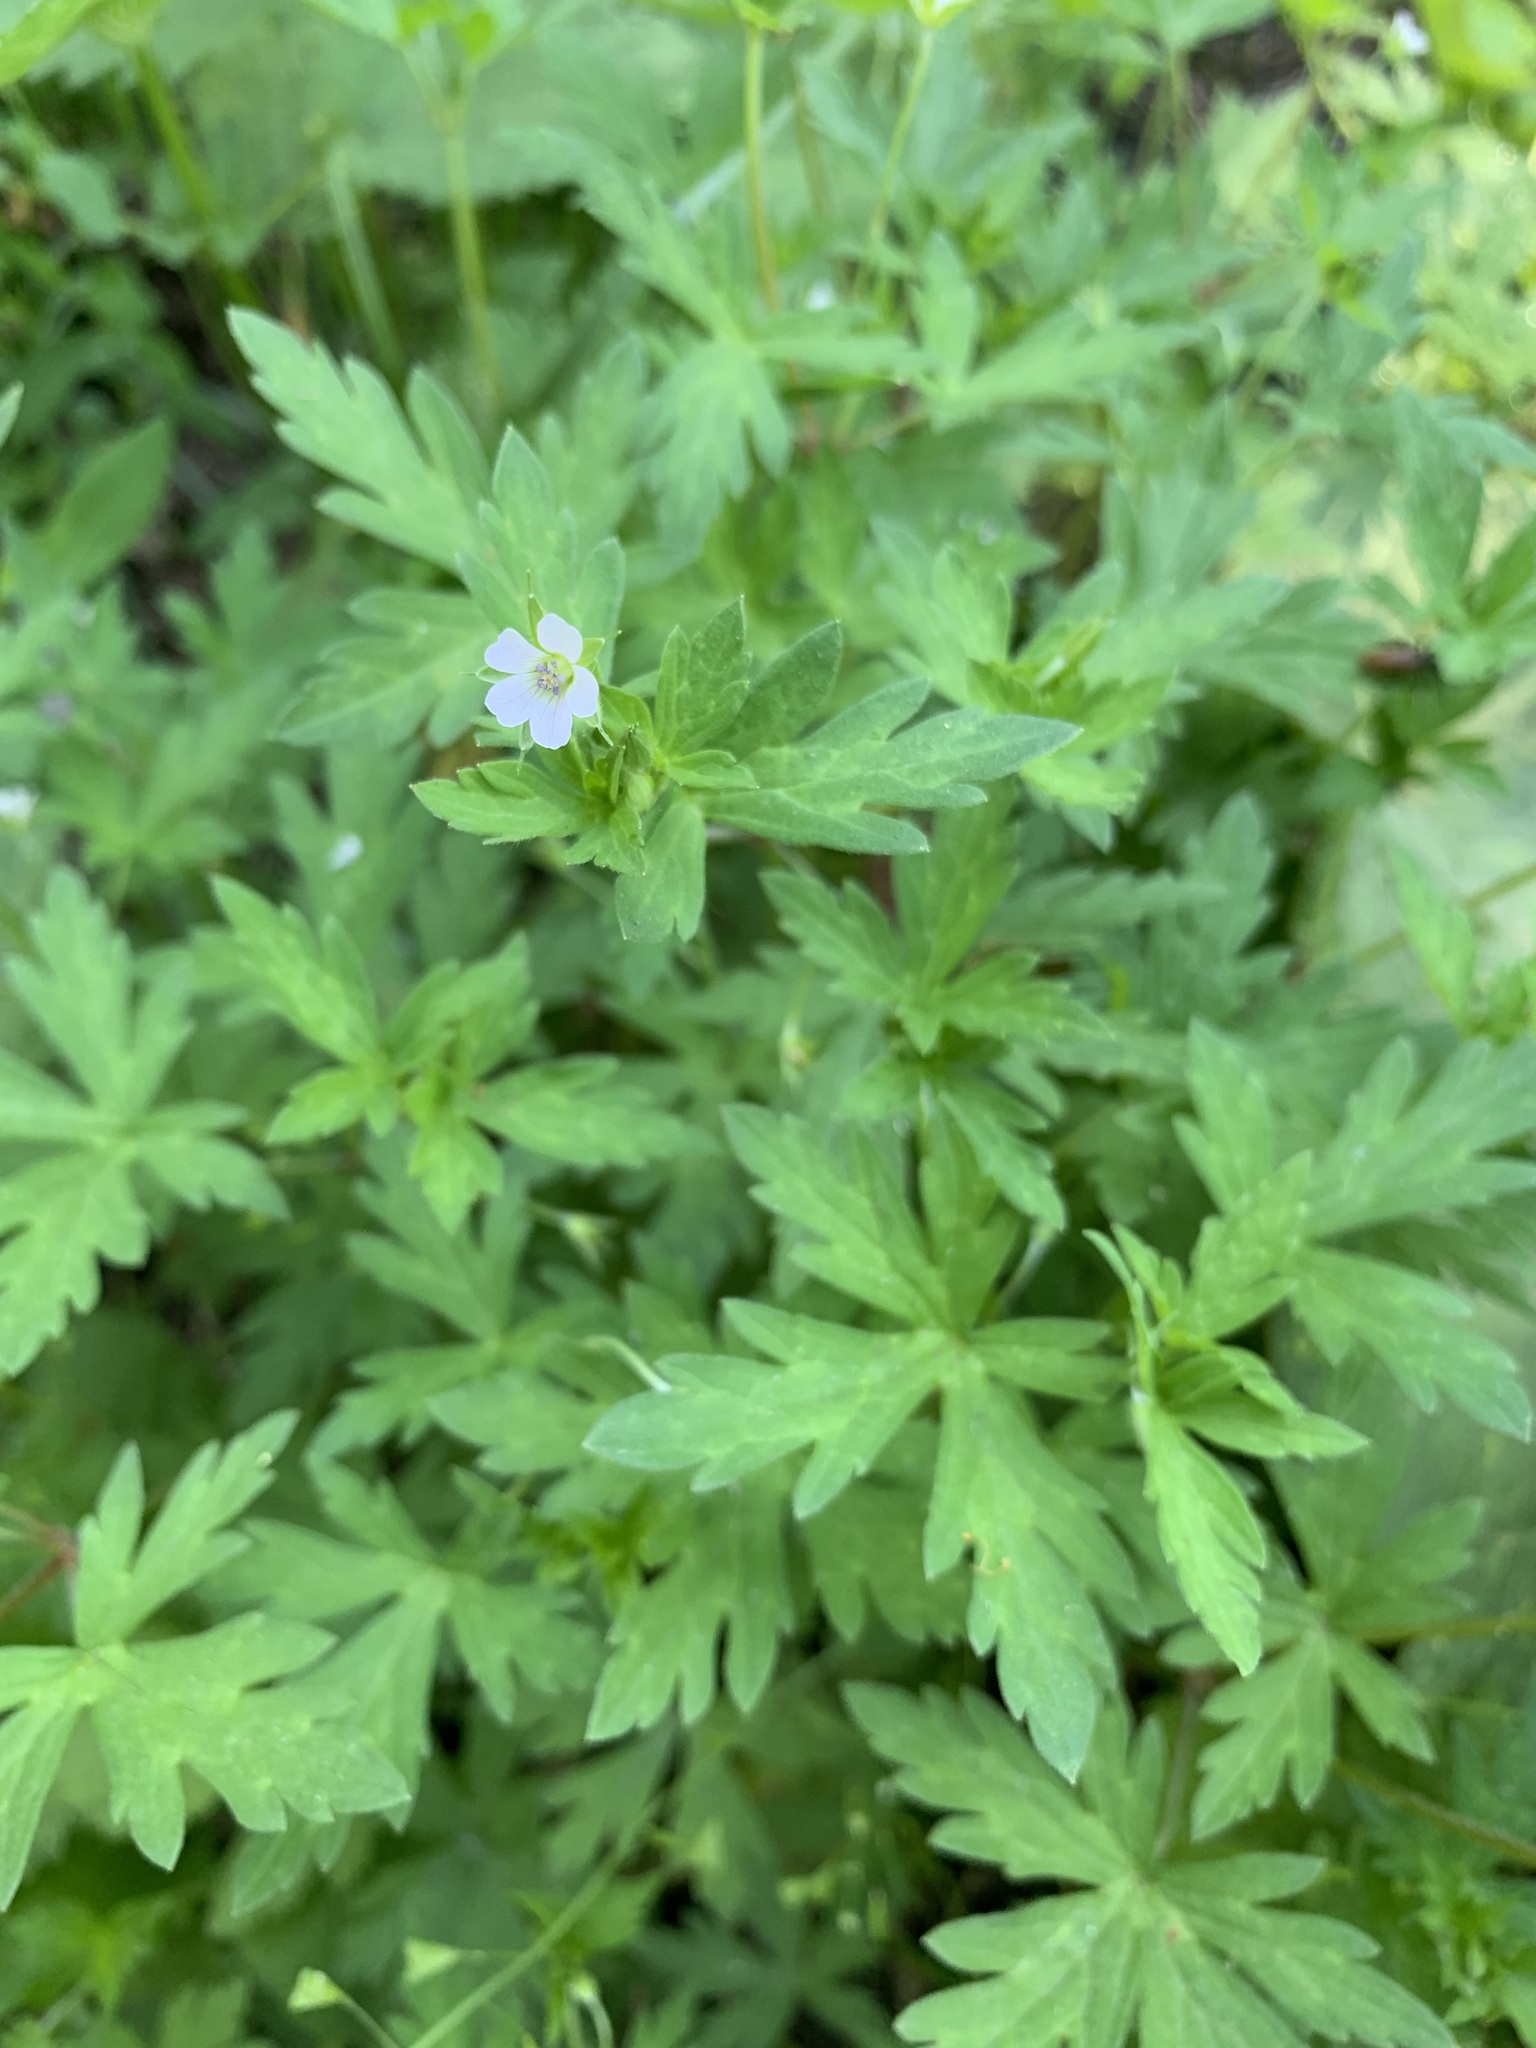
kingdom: Plantae
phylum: Tracheophyta
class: Magnoliopsida
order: Geraniales
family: Geraniaceae
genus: Geranium
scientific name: Geranium sibiricum
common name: Siberian crane's-bill
